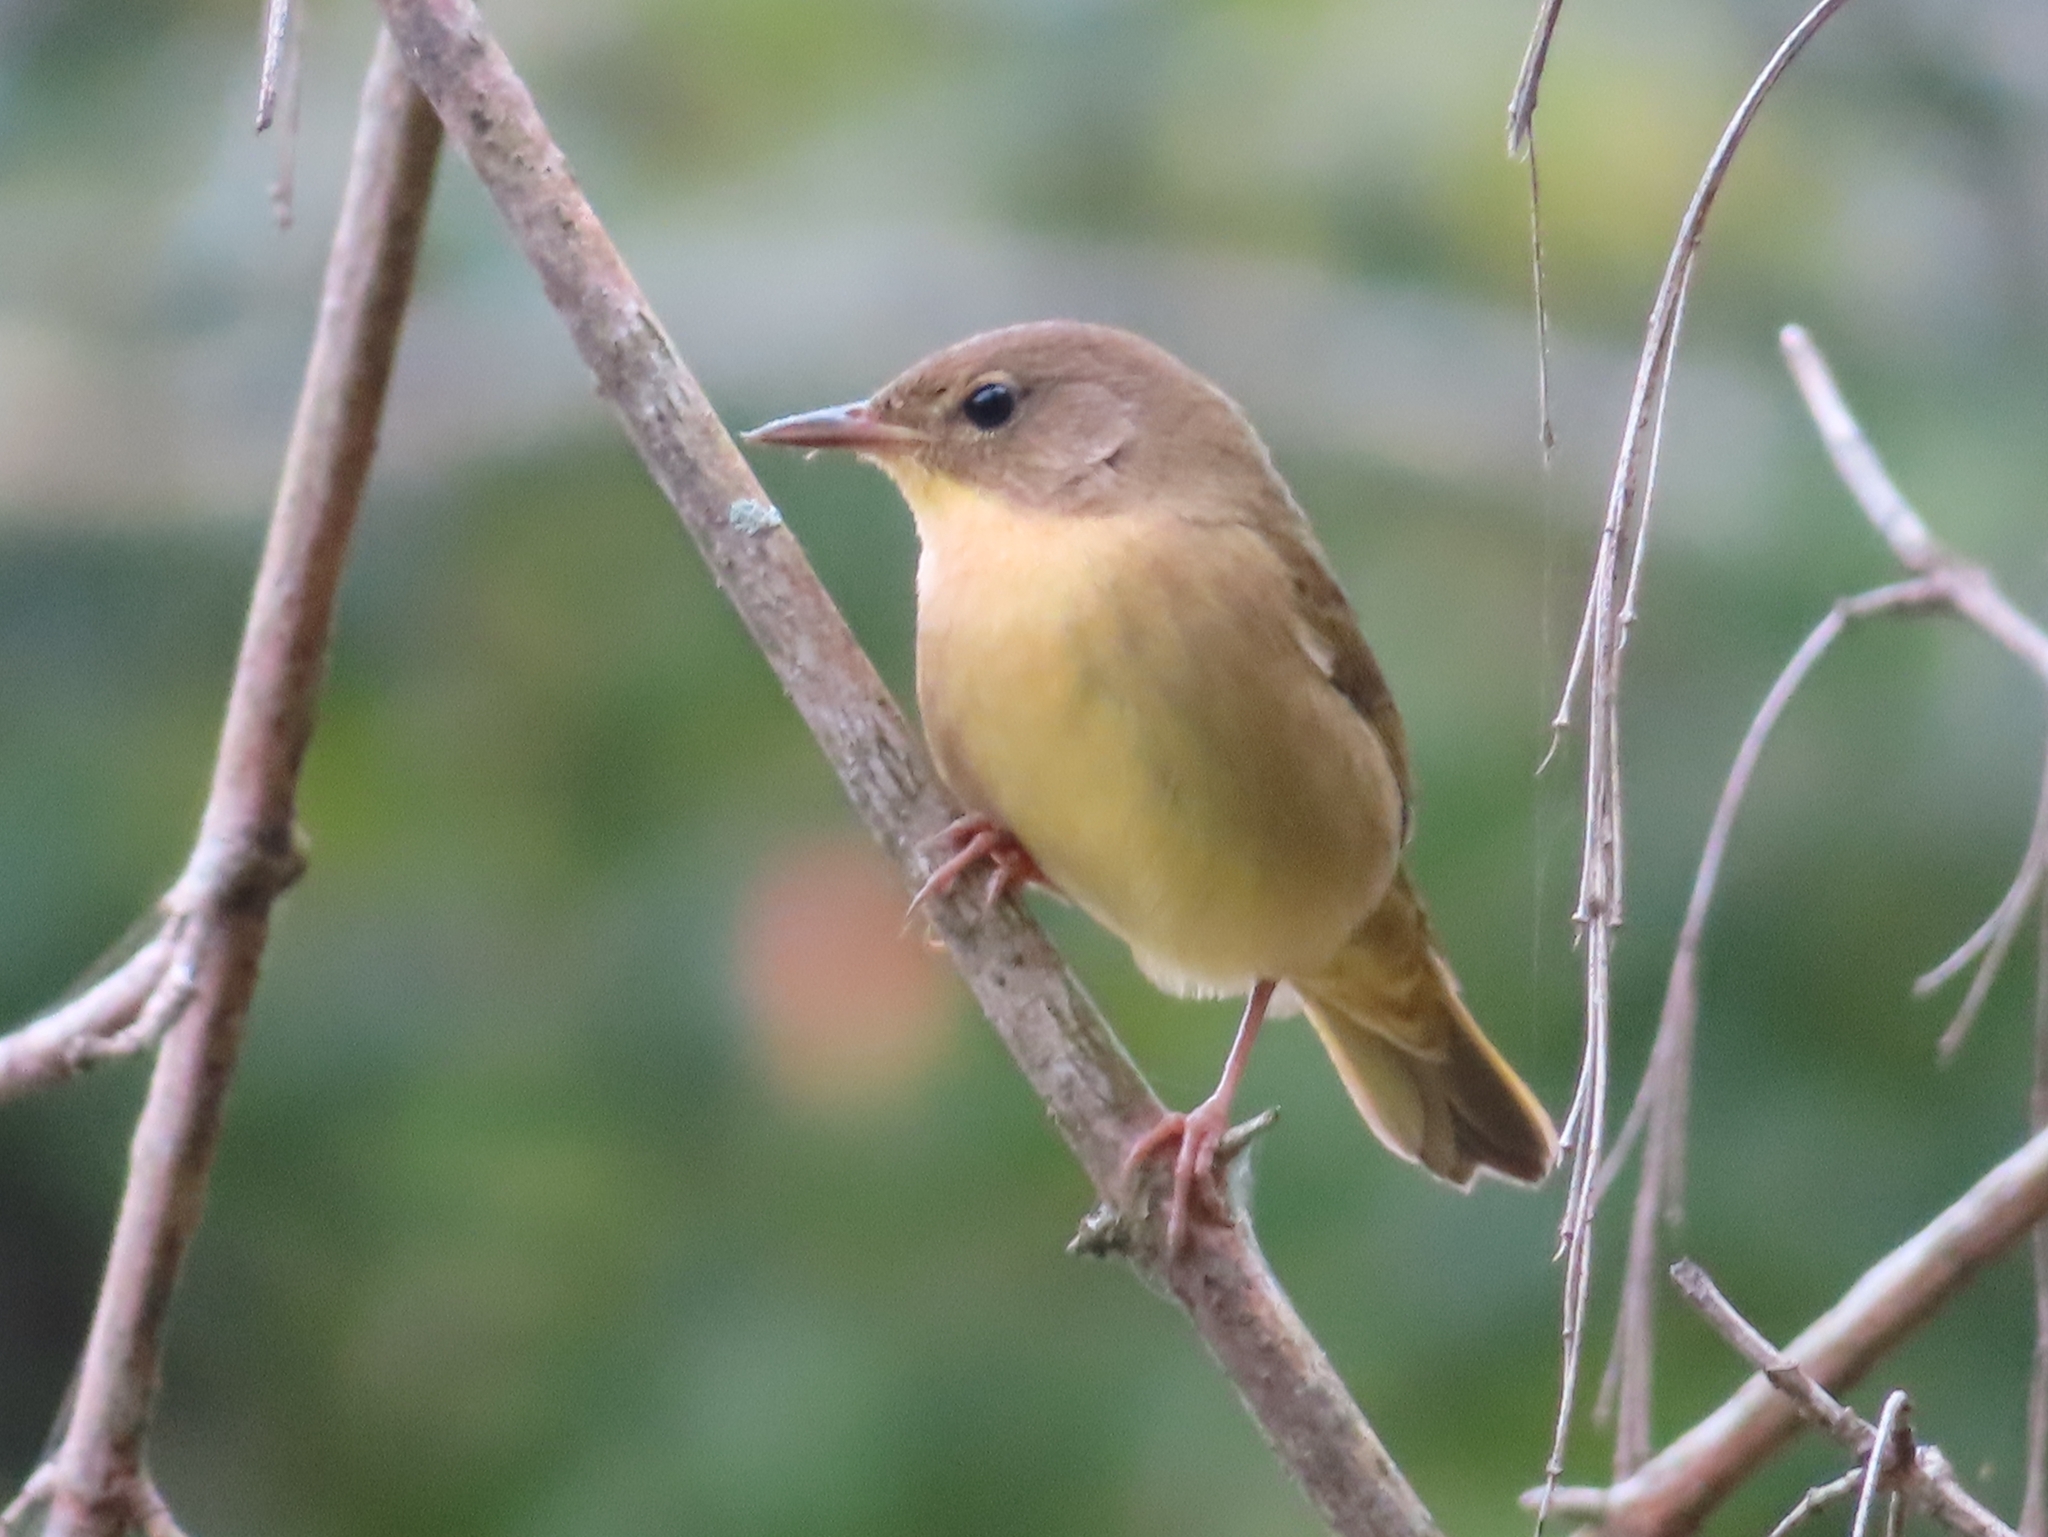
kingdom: Animalia
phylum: Chordata
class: Aves
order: Passeriformes
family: Parulidae
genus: Geothlypis
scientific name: Geothlypis trichas
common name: Common yellowthroat
